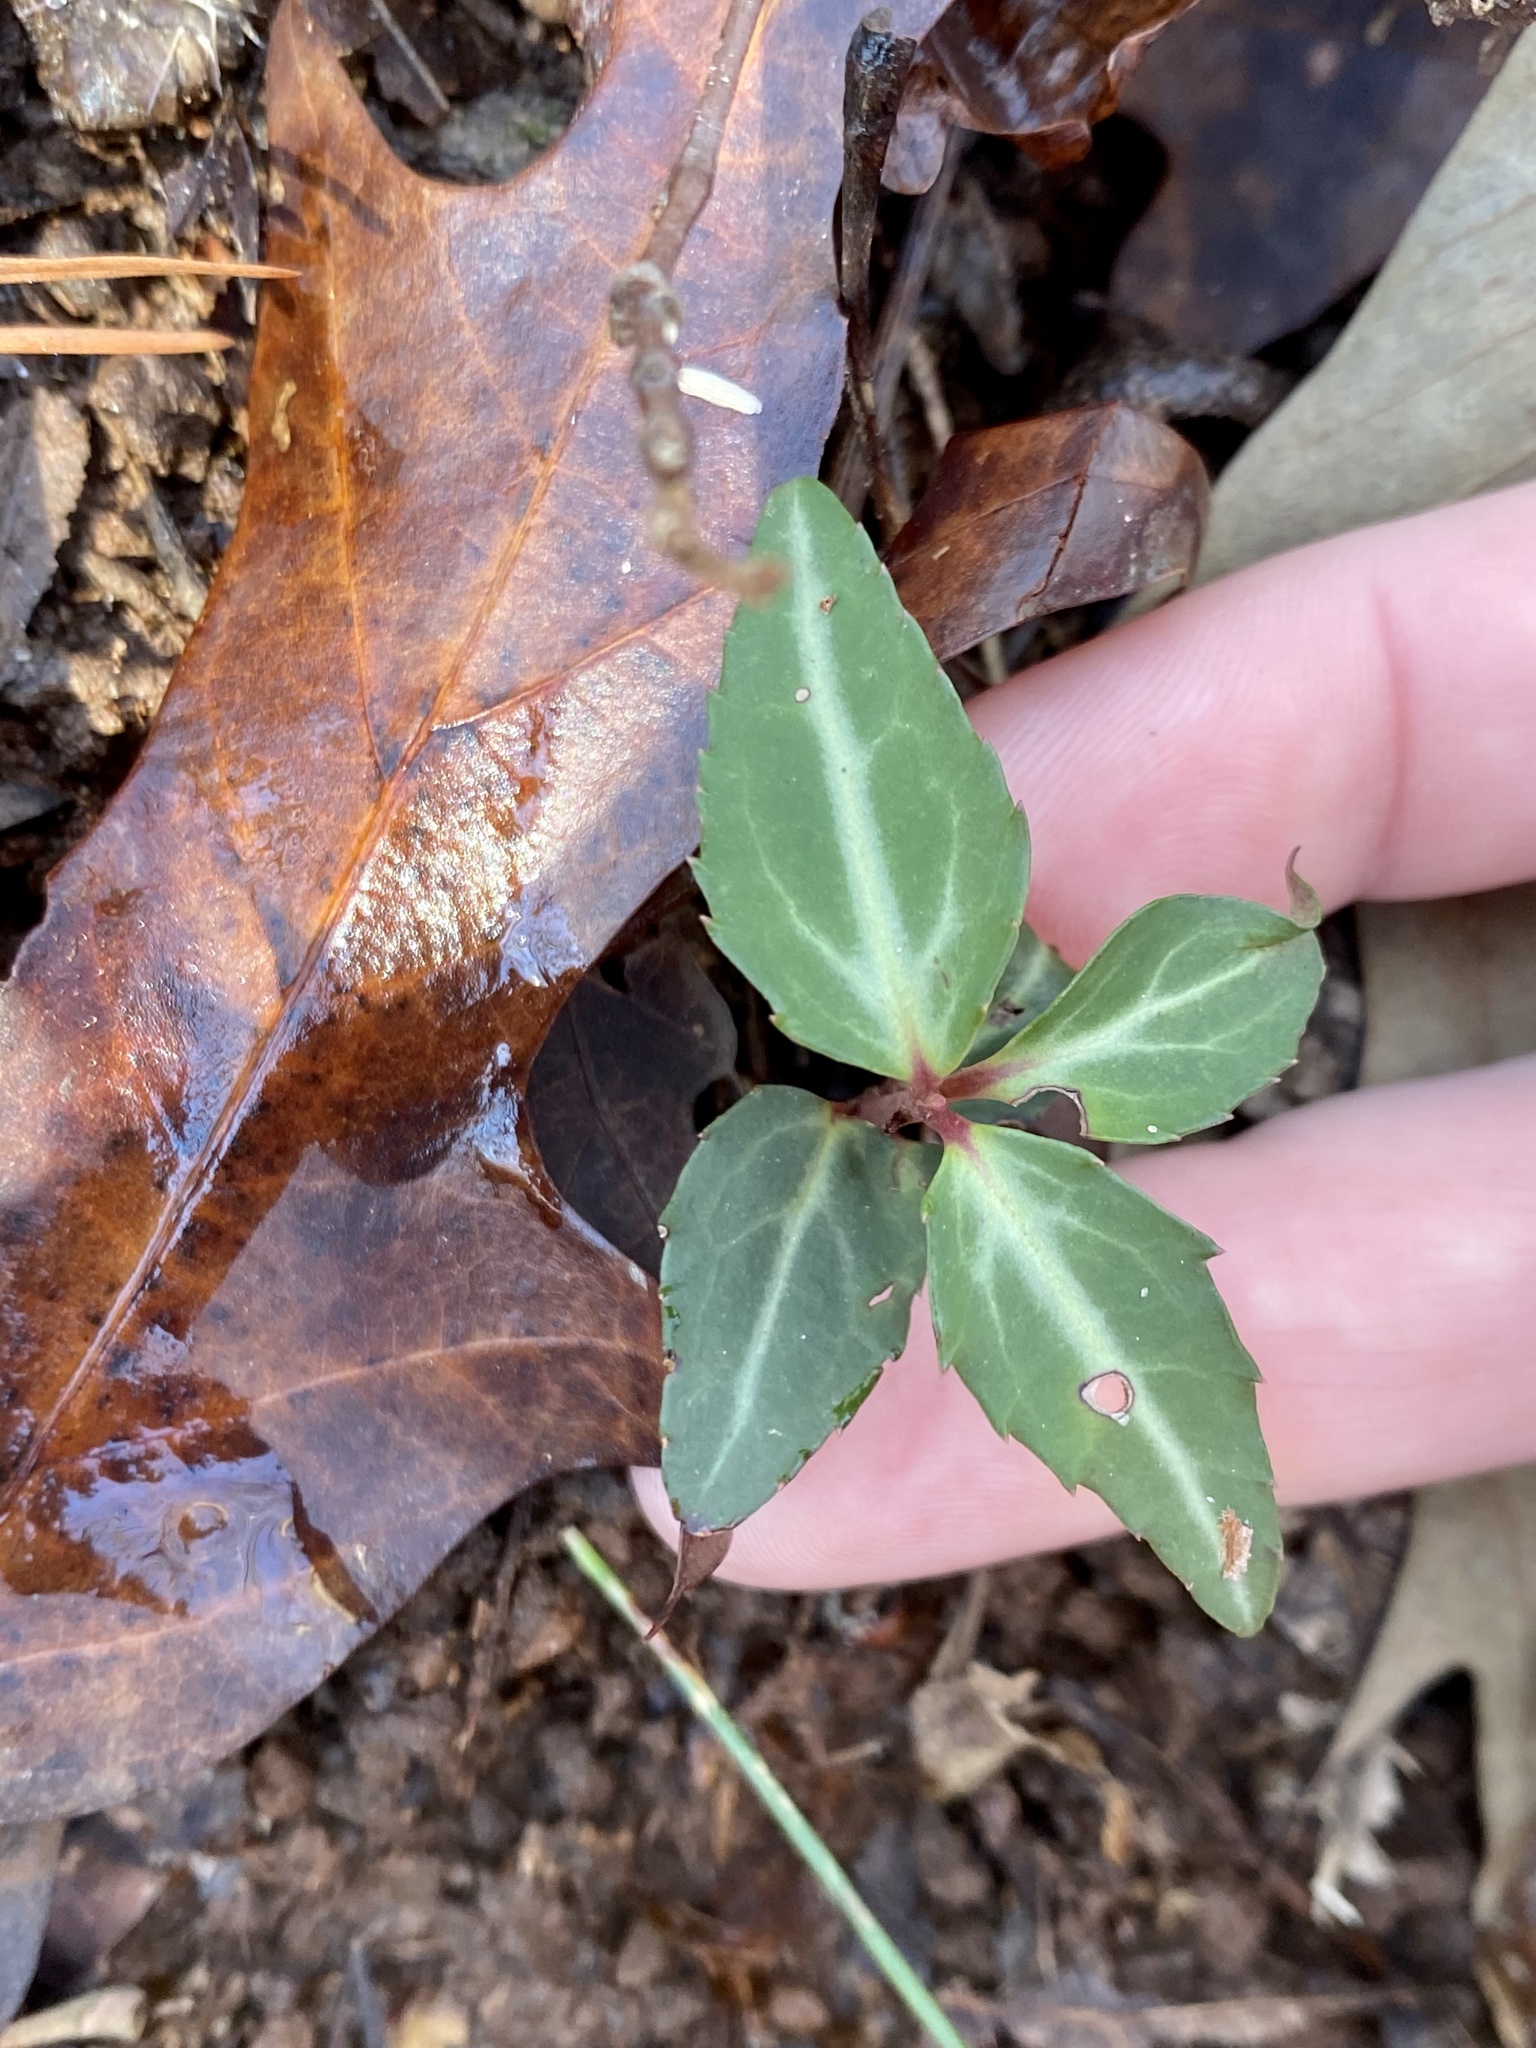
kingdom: Plantae
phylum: Tracheophyta
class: Magnoliopsida
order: Ericales
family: Ericaceae
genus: Chimaphila
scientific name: Chimaphila maculata
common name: Spotted pipsissewa
